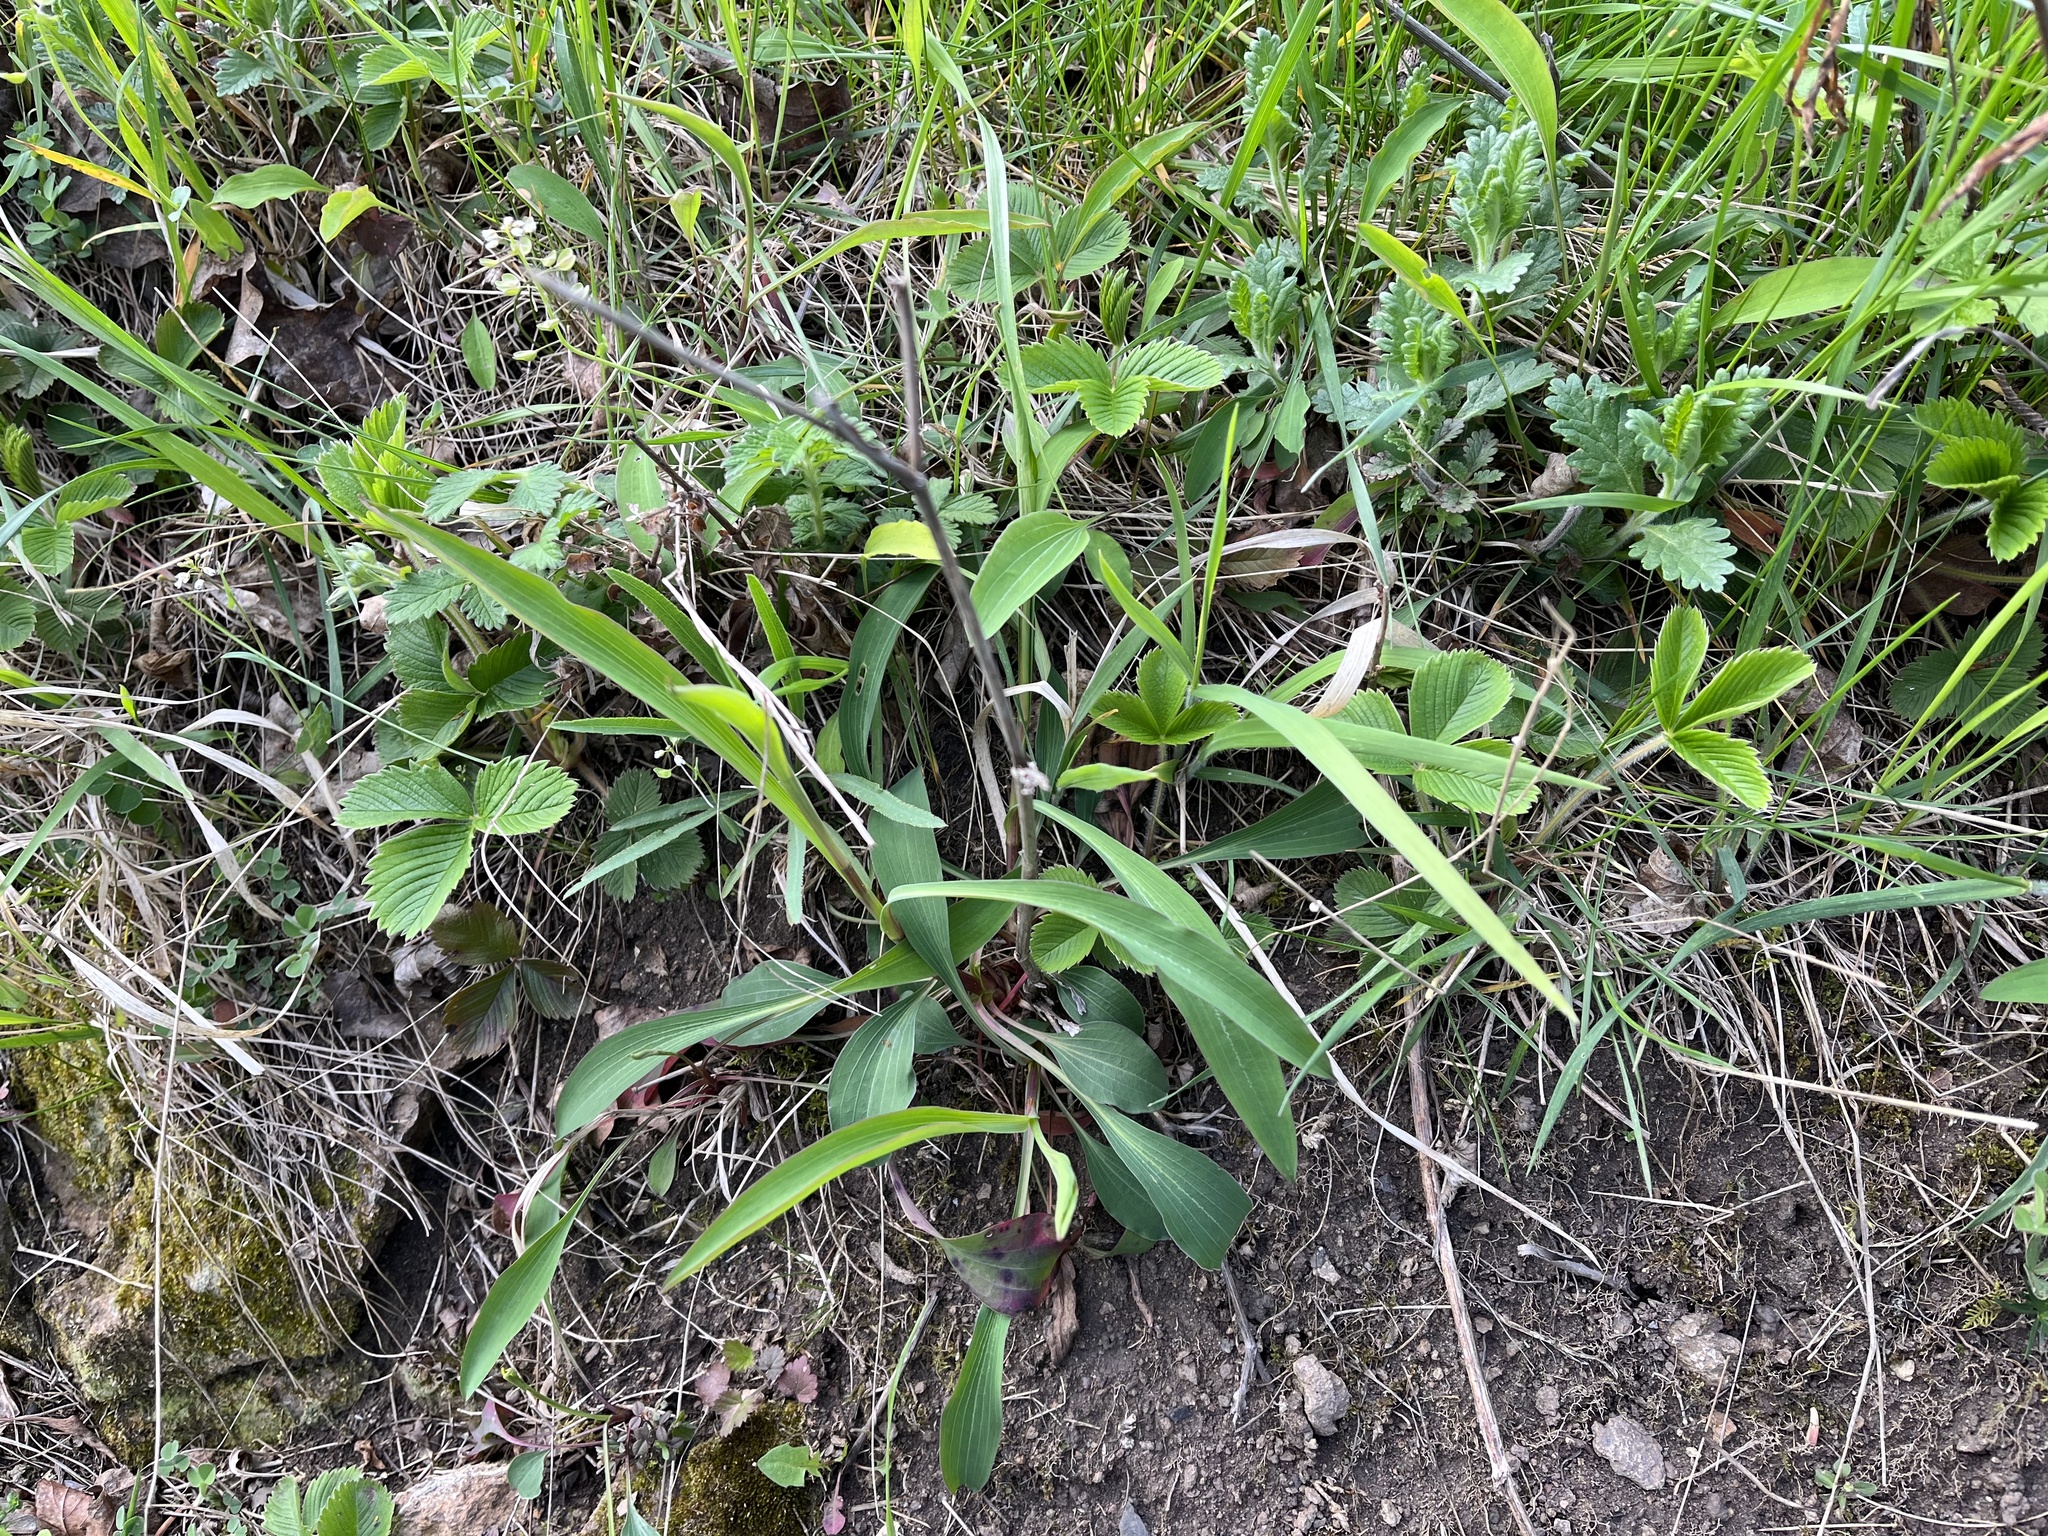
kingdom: Plantae
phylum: Tracheophyta
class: Magnoliopsida
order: Apiales
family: Apiaceae
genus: Bupleurum
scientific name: Bupleurum falcatum
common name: Sickle-leaved hare's-ear
